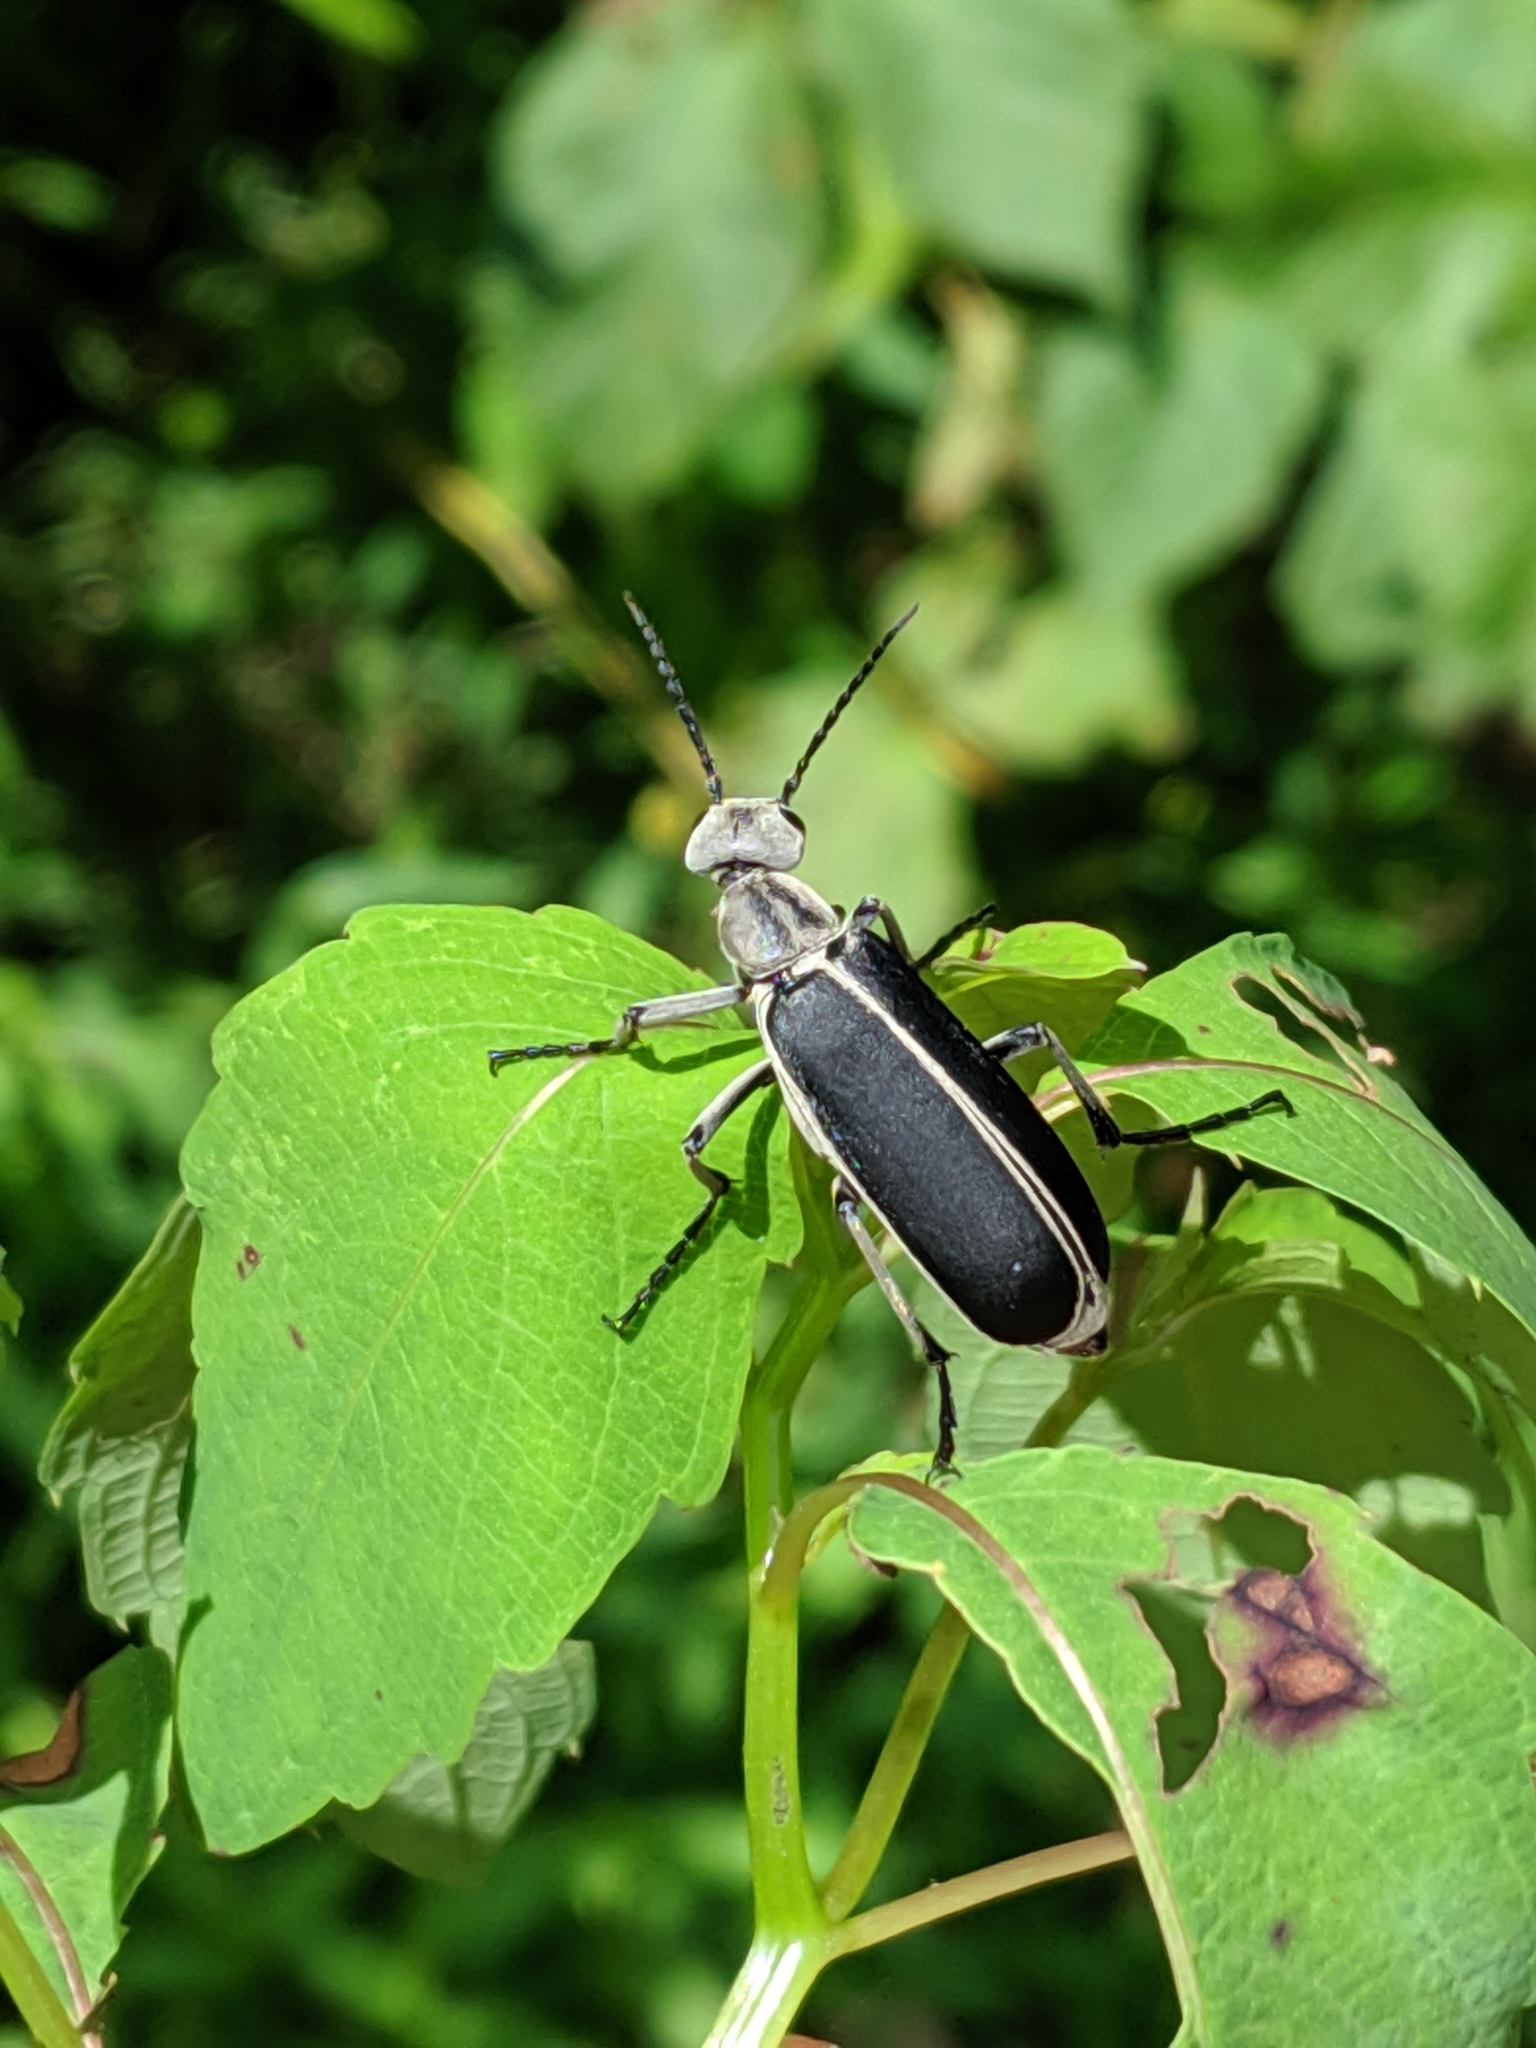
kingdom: Animalia
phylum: Arthropoda
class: Insecta
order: Coleoptera
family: Meloidae
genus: Epicauta
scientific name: Epicauta cinerea
